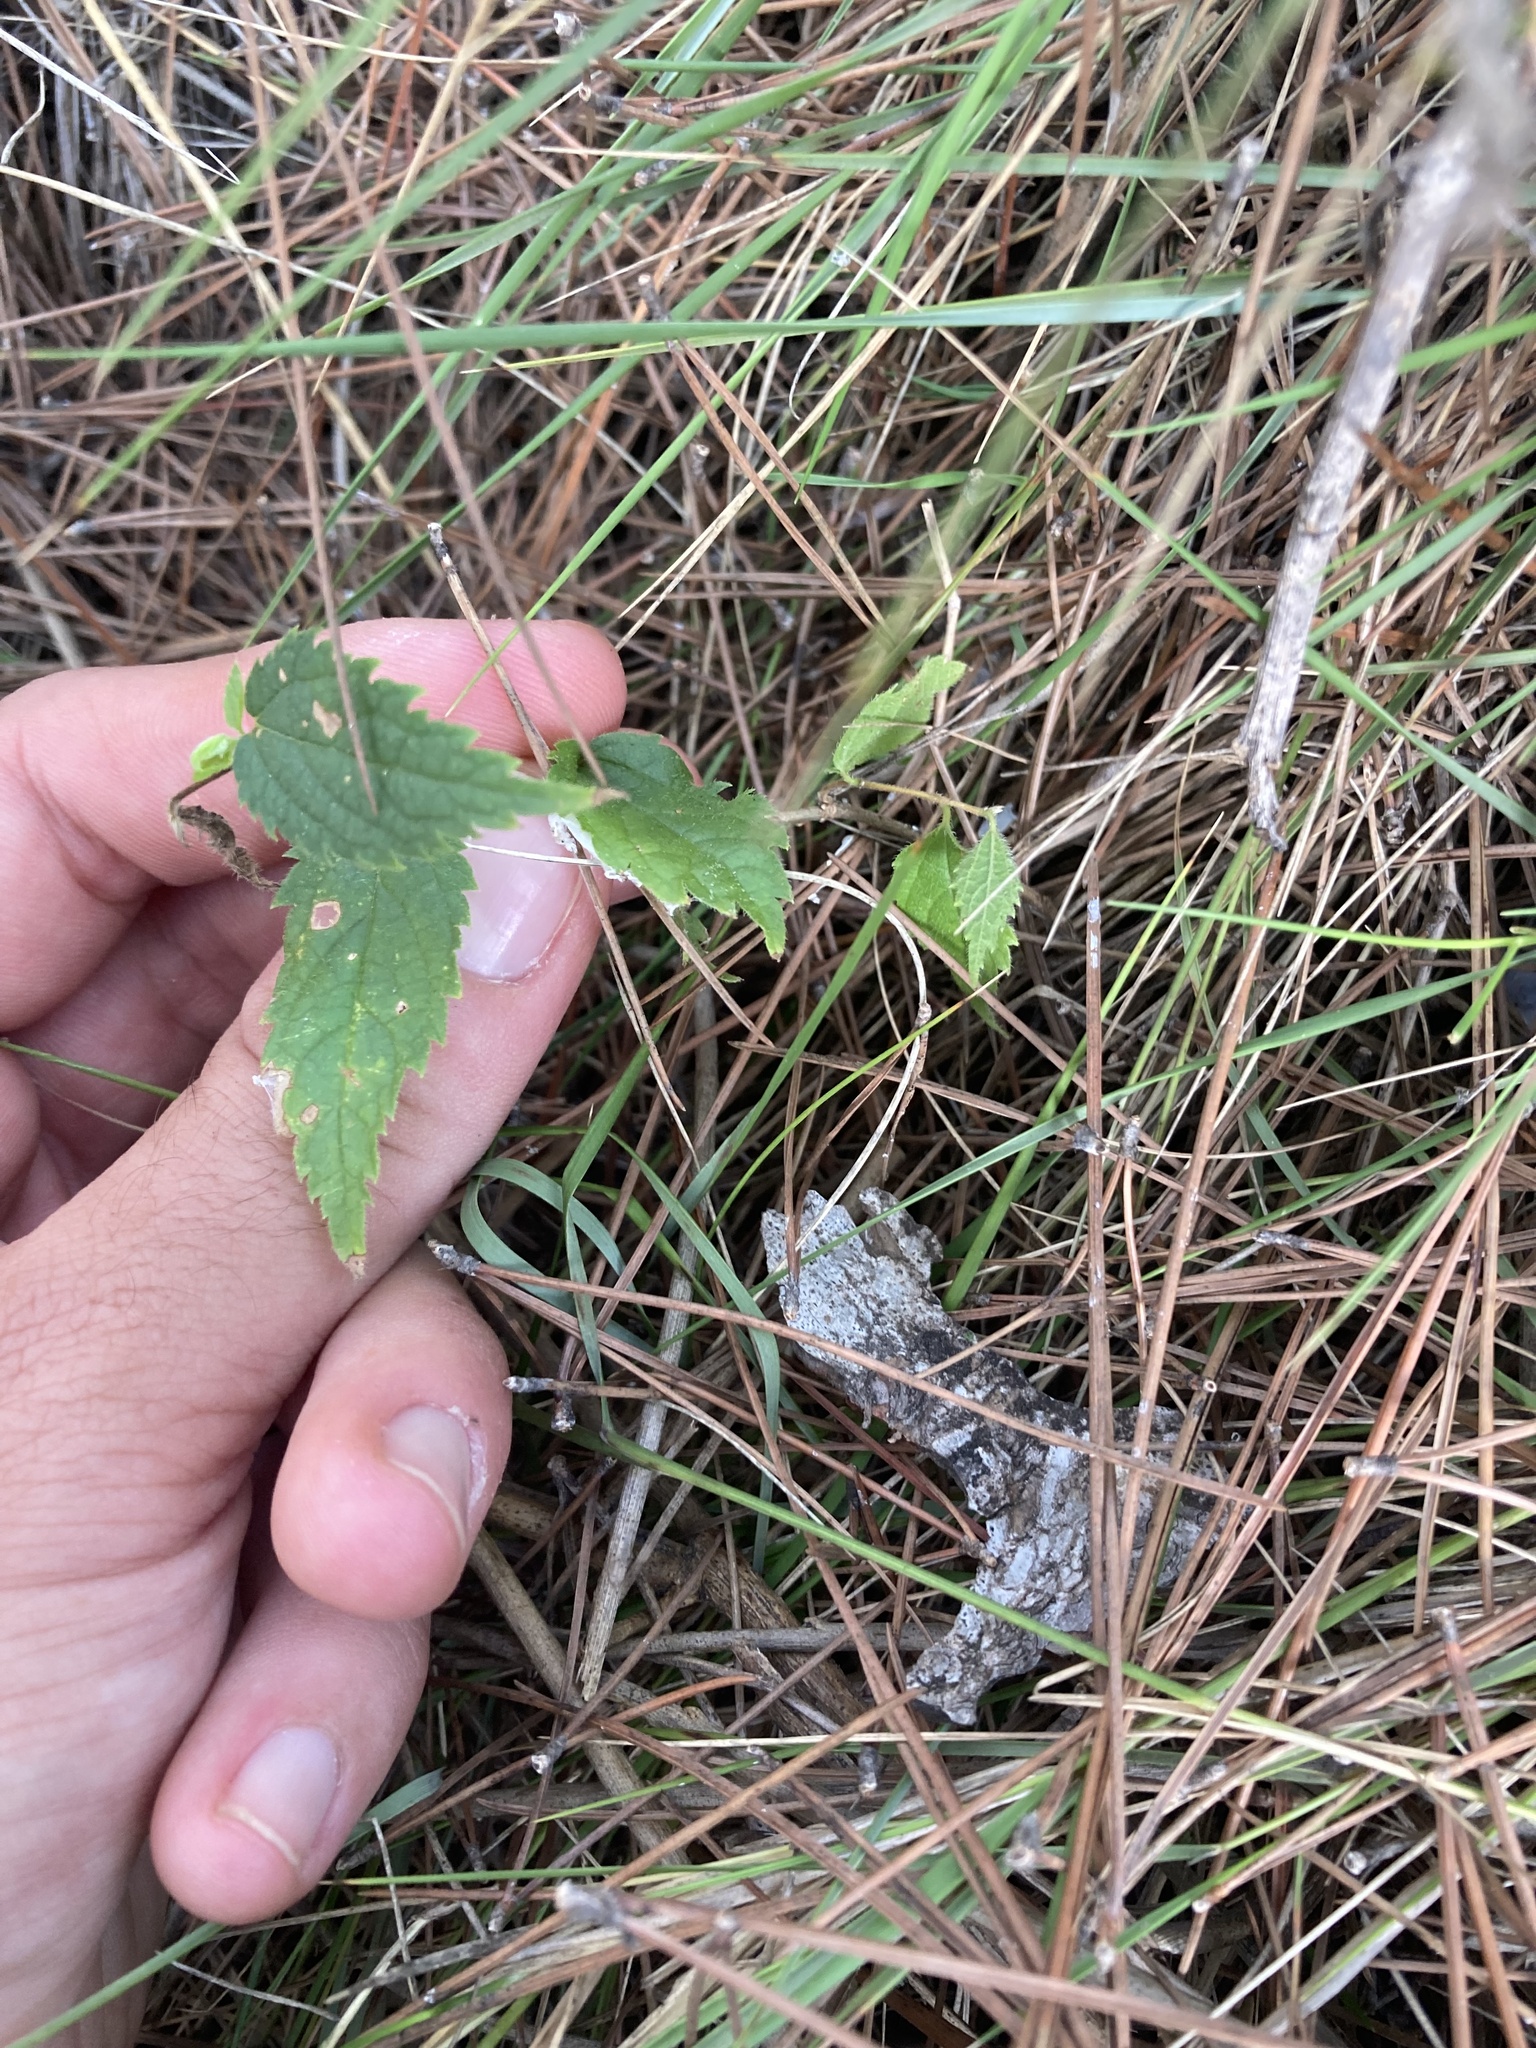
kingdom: Plantae
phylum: Tracheophyta
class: Magnoliopsida
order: Rosales
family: Cannabaceae
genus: Celtis
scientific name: Celtis australis
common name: European hackberry
